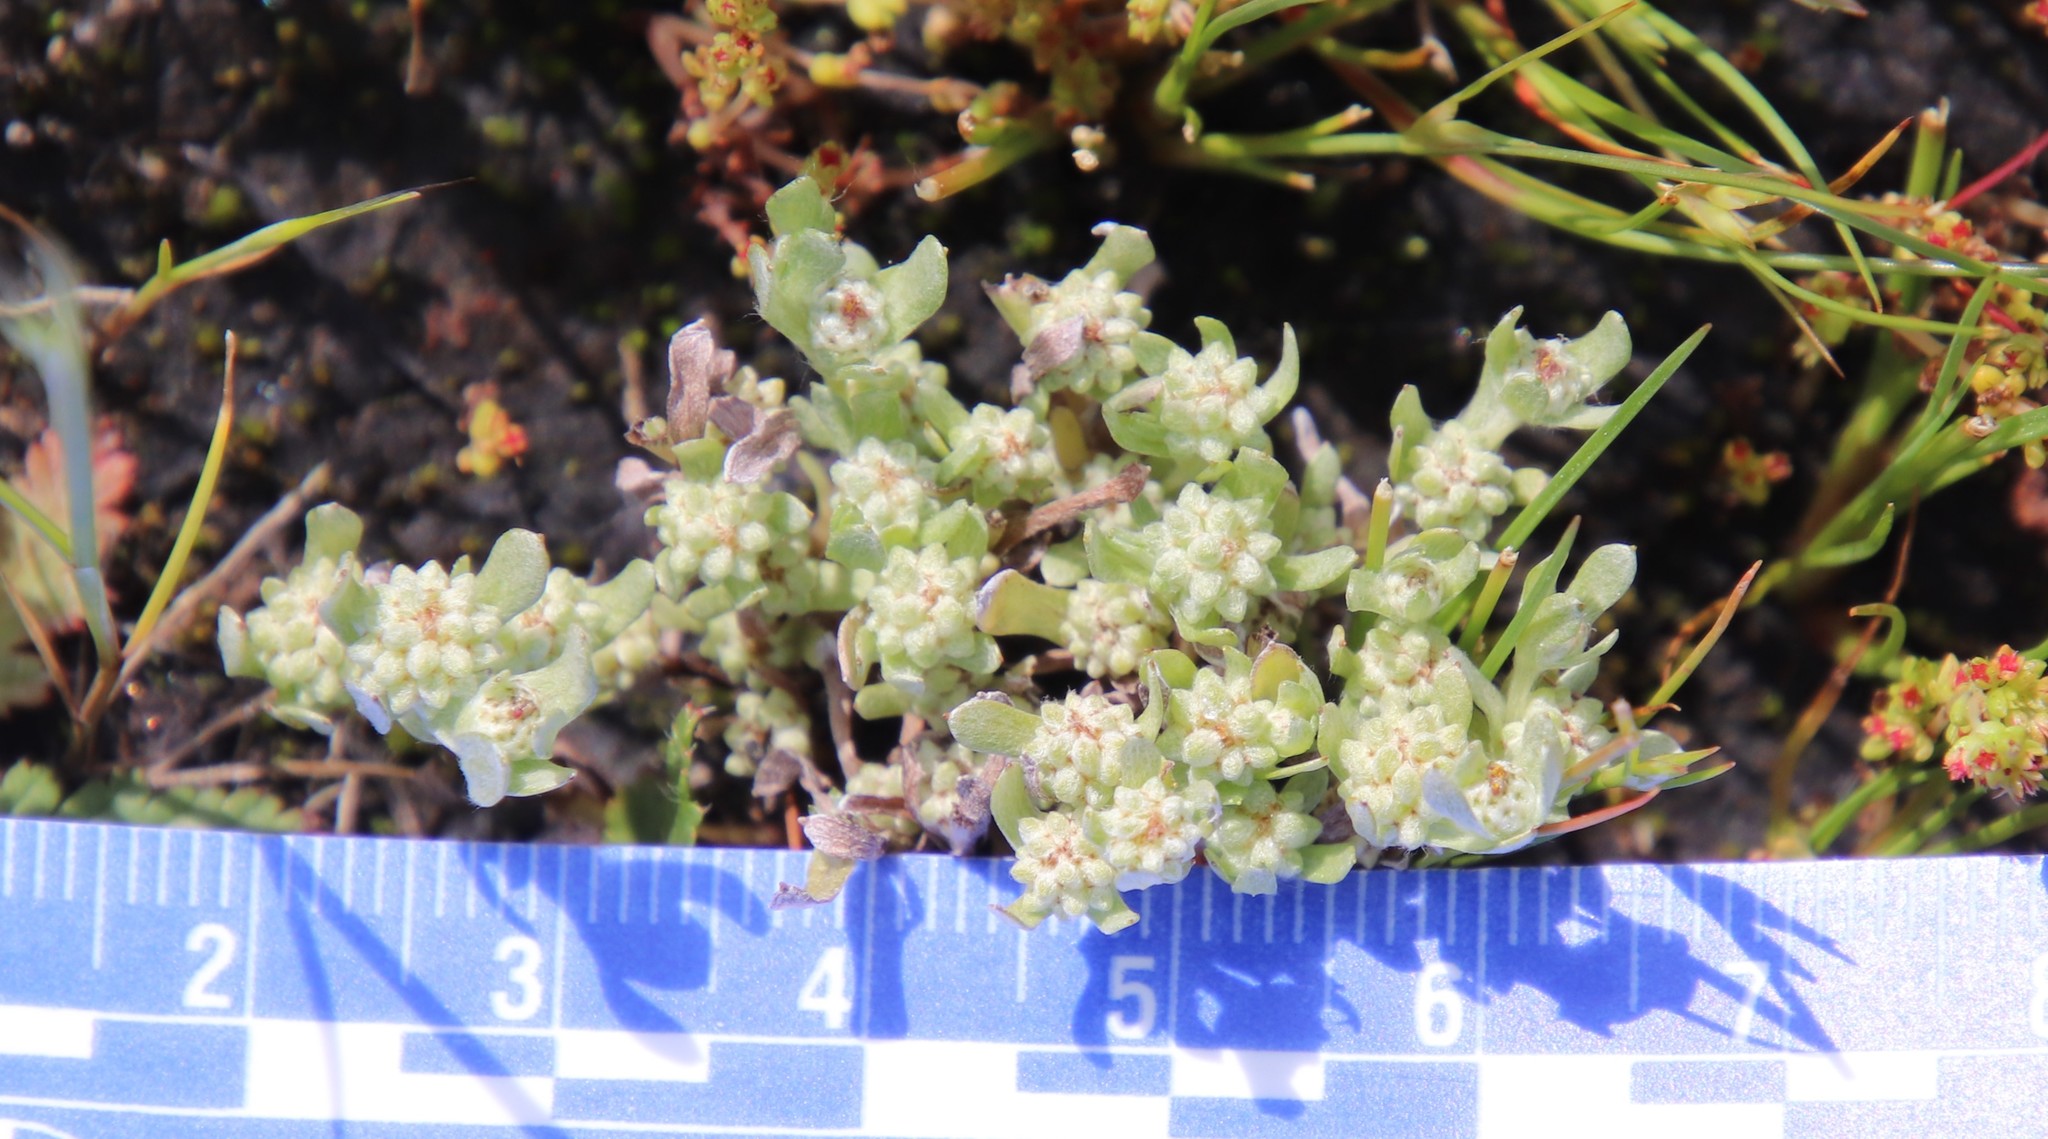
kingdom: Plantae
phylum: Tracheophyta
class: Magnoliopsida
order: Asterales
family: Asteraceae
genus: Psilocarphus
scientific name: Psilocarphus tenellus
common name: Slender woolly-marbles
